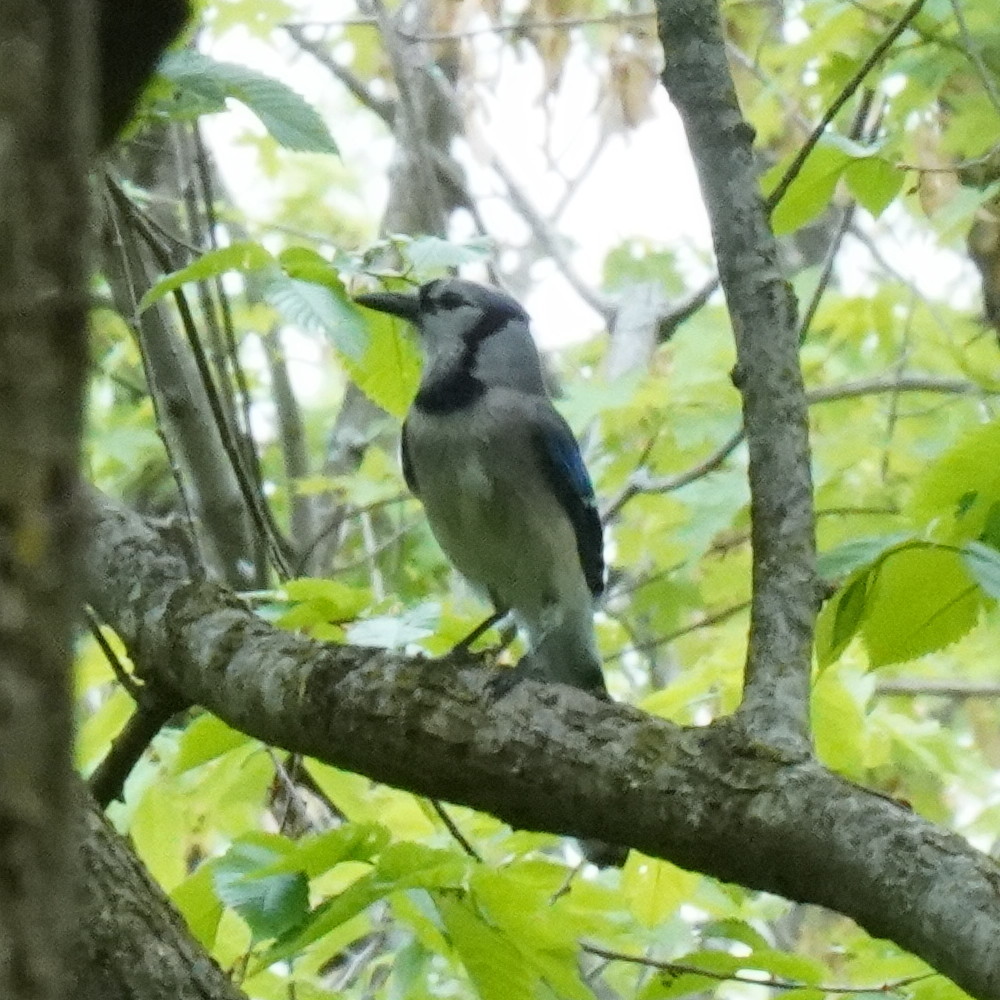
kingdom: Animalia
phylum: Chordata
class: Aves
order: Passeriformes
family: Corvidae
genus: Cyanocitta
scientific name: Cyanocitta cristata
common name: Blue jay
